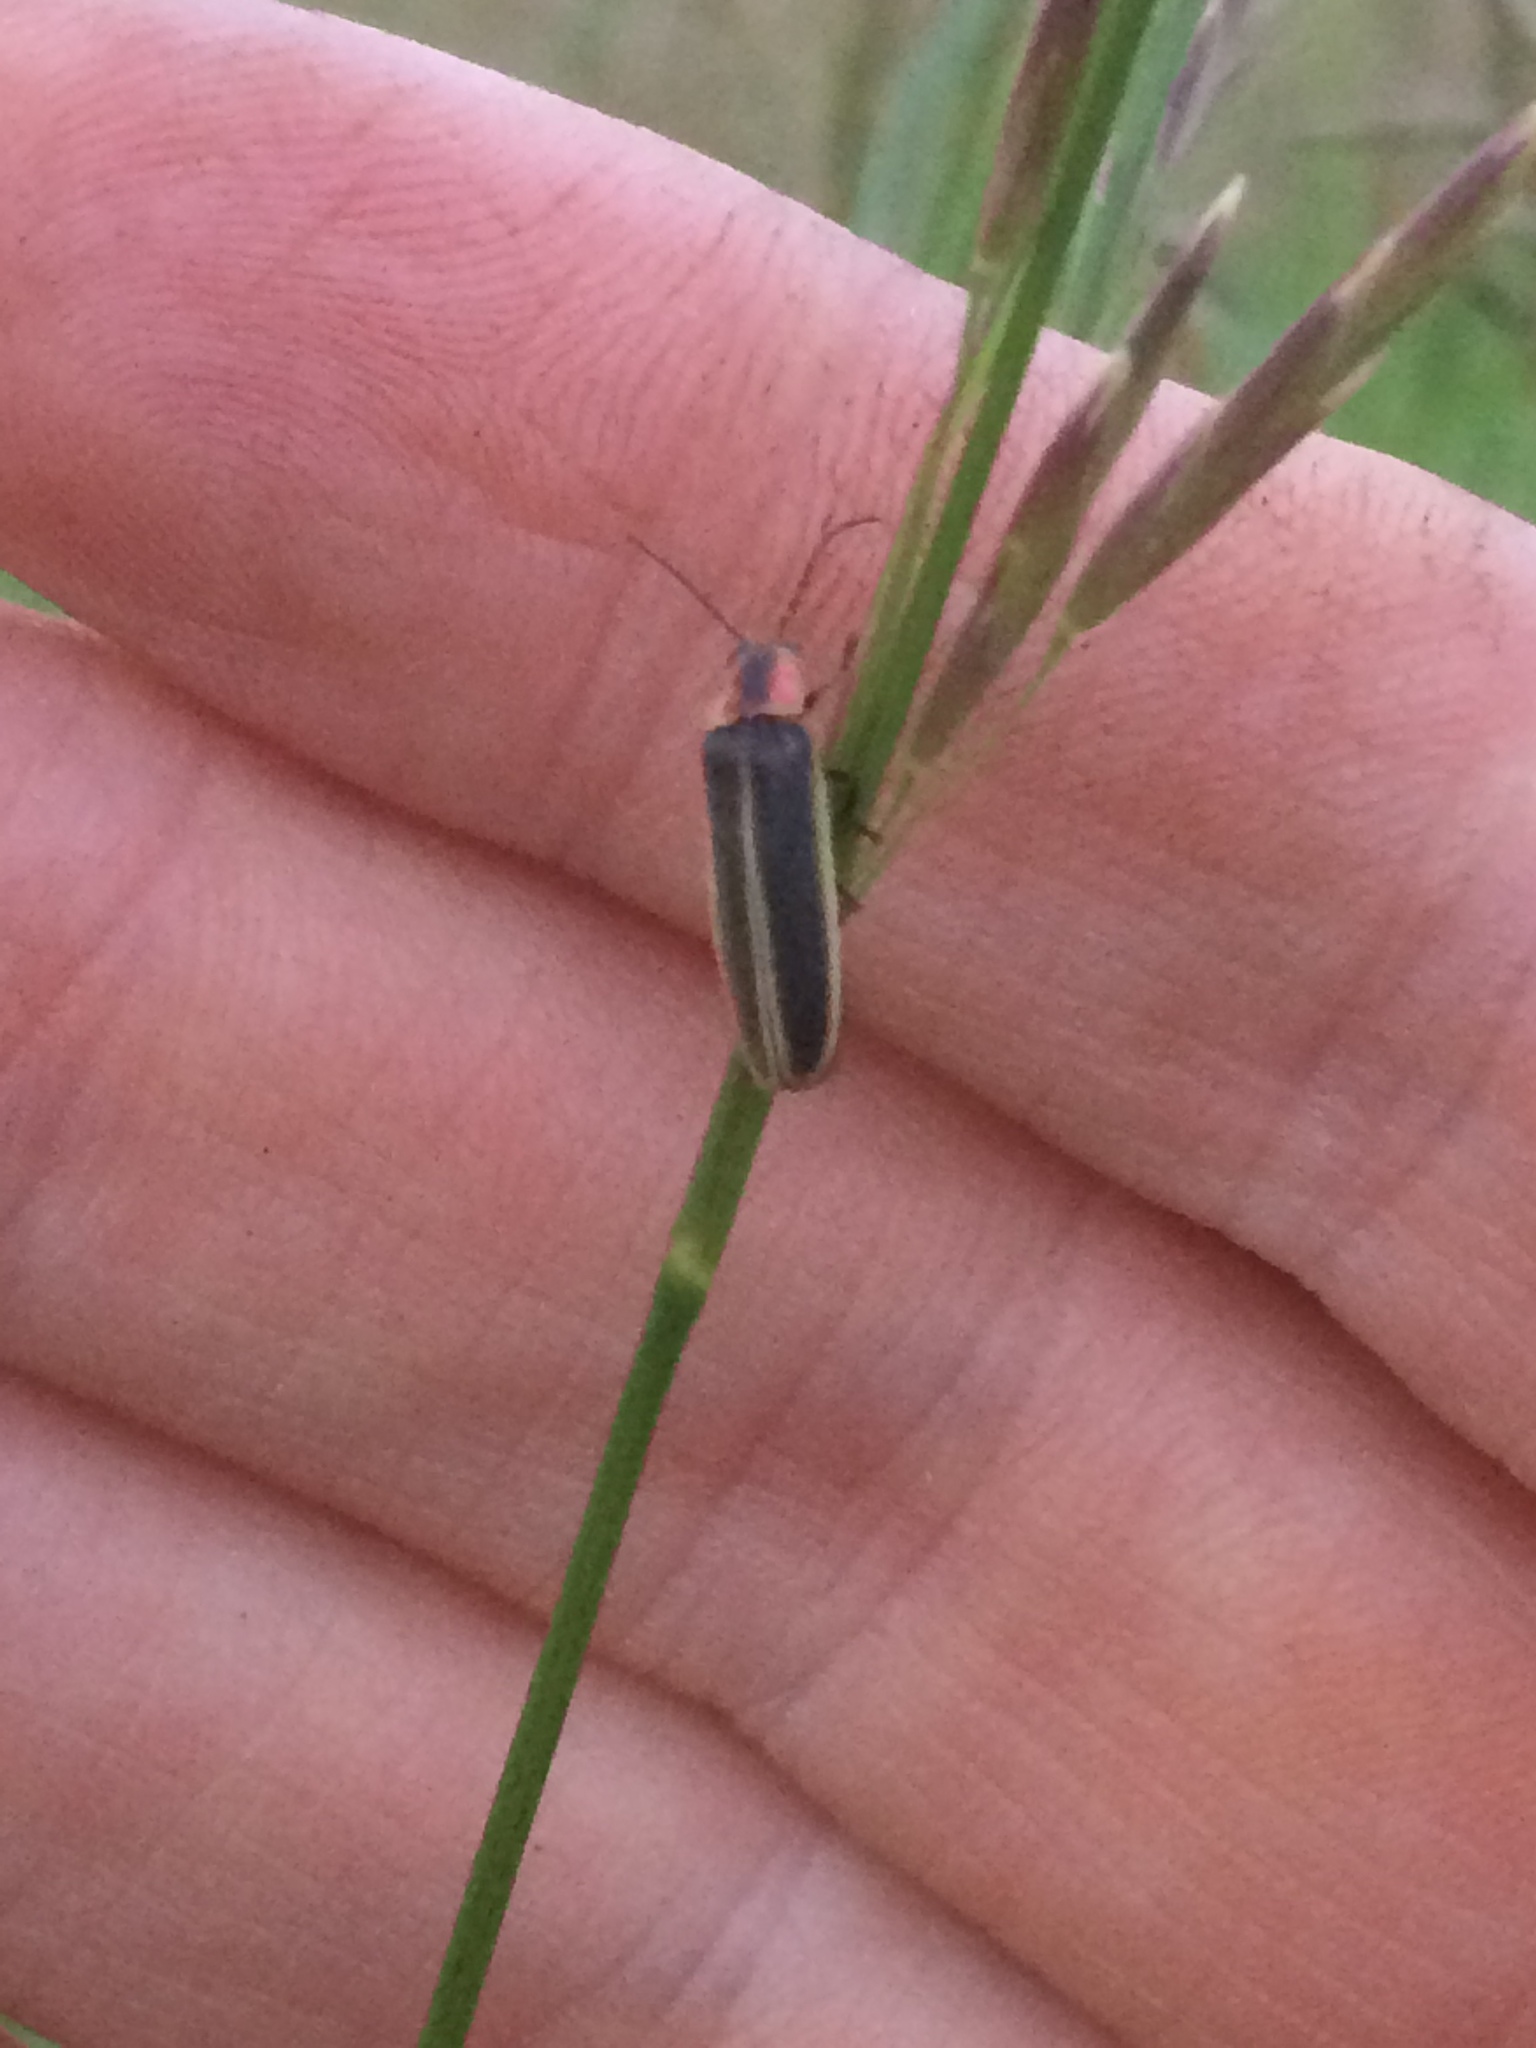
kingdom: Animalia
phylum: Arthropoda
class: Insecta
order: Coleoptera
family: Lampyridae
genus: Photinus
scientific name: Photinus
